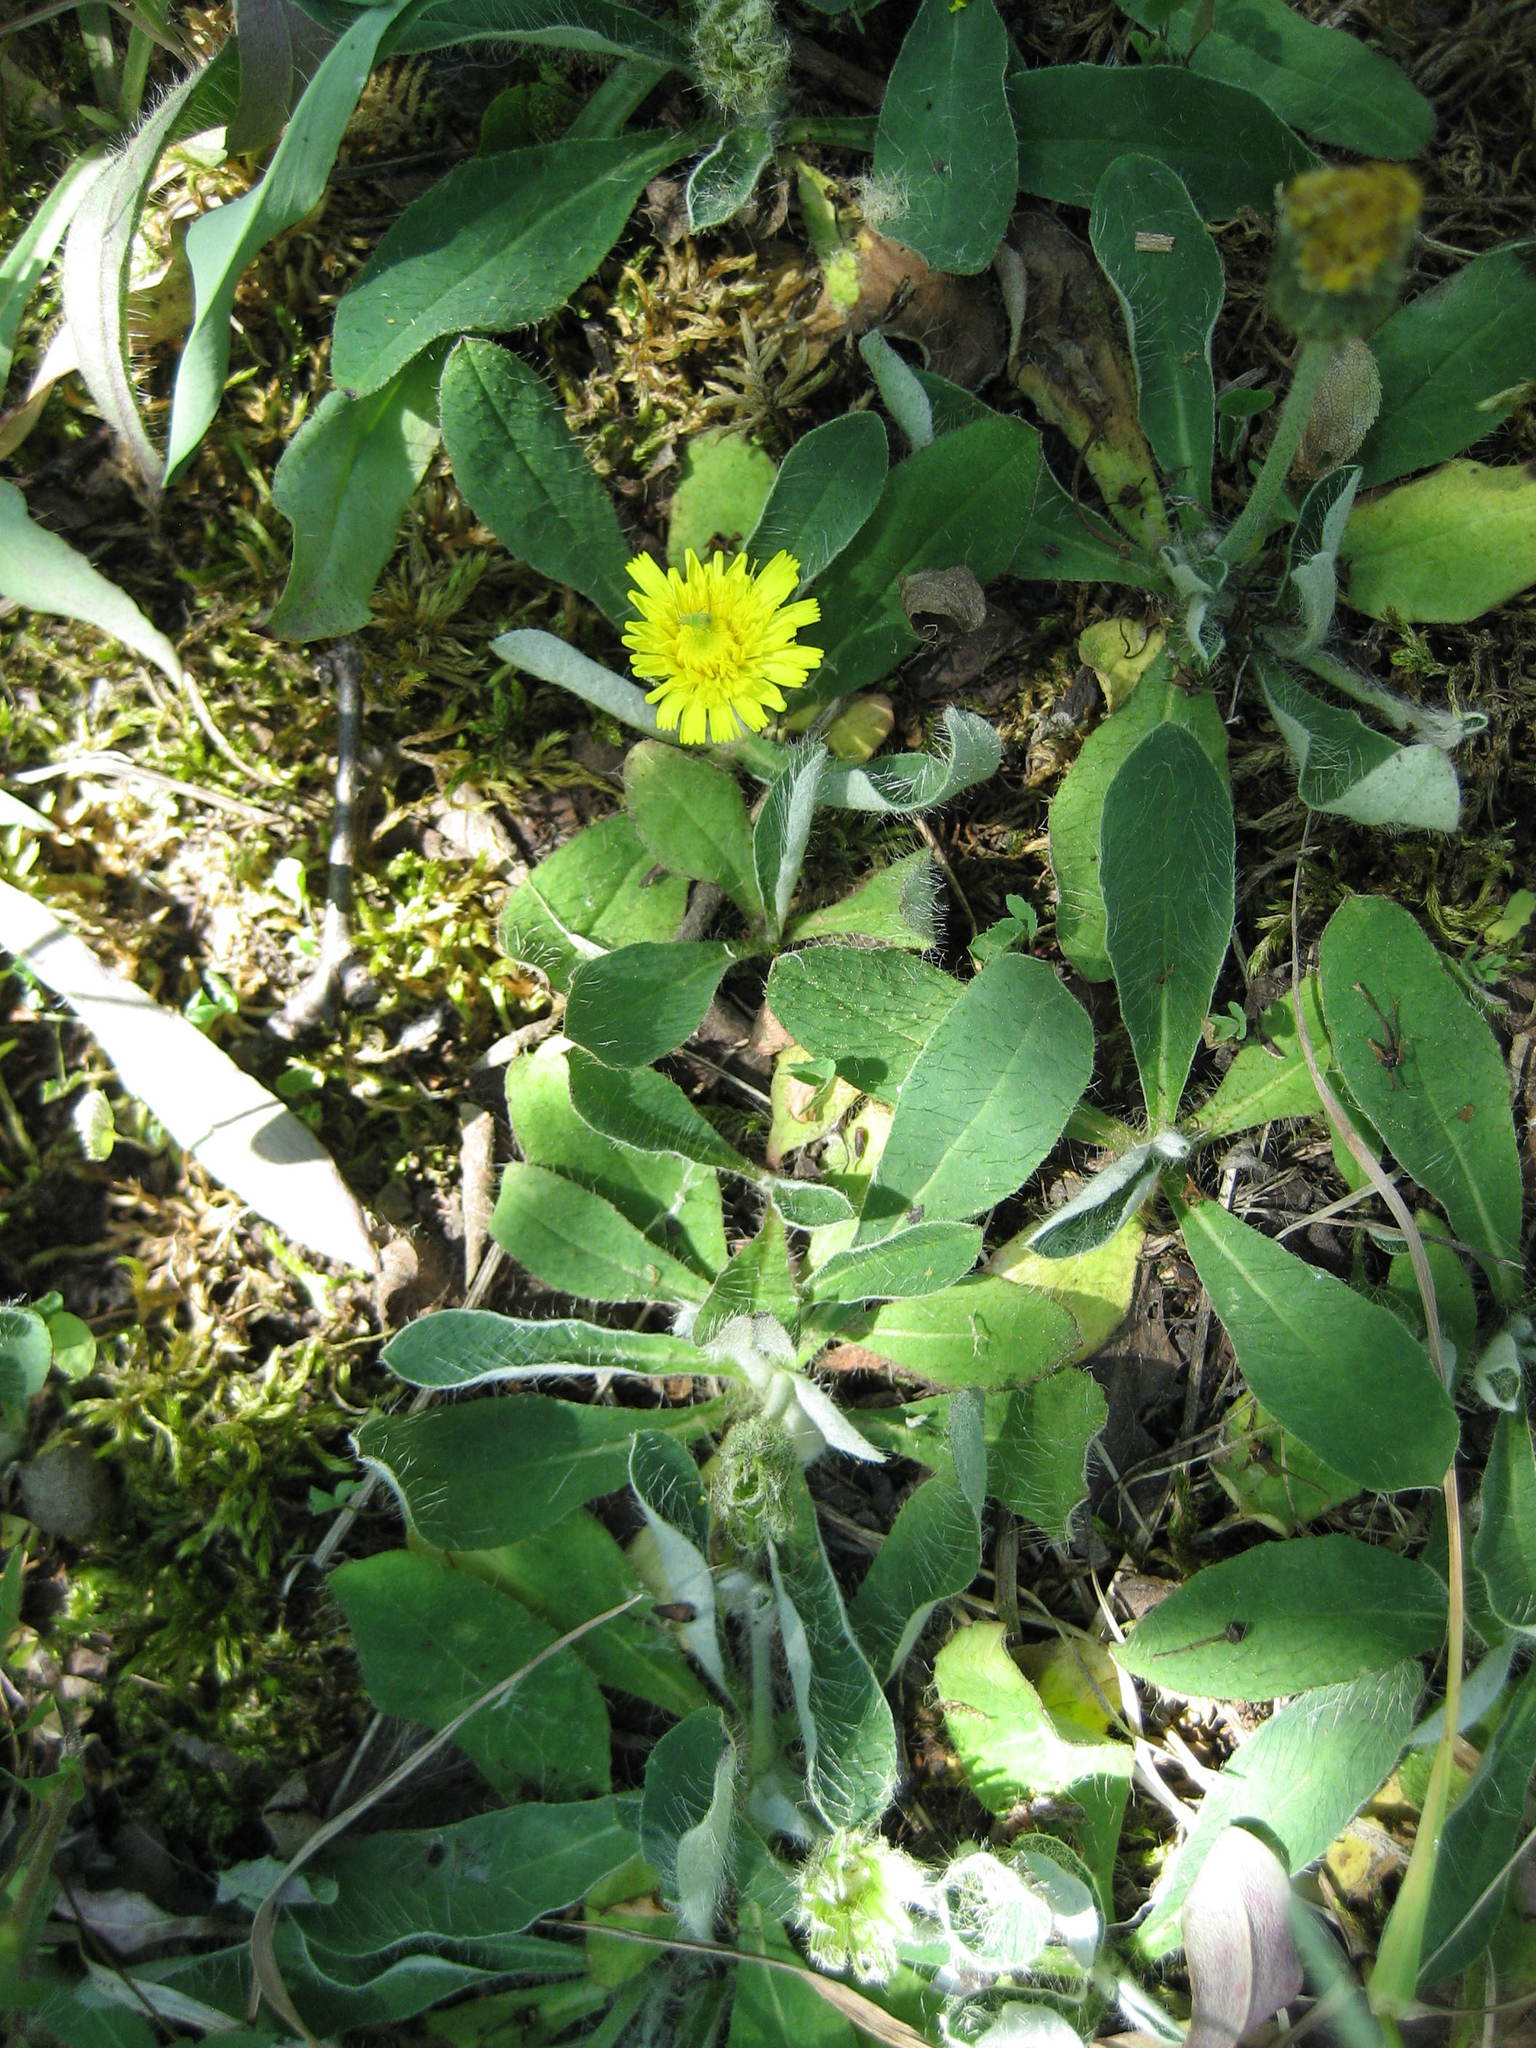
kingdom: Plantae
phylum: Tracheophyta
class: Magnoliopsida
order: Asterales
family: Asteraceae
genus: Pilosella
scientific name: Pilosella officinarum
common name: Mouse-ear hawkweed
